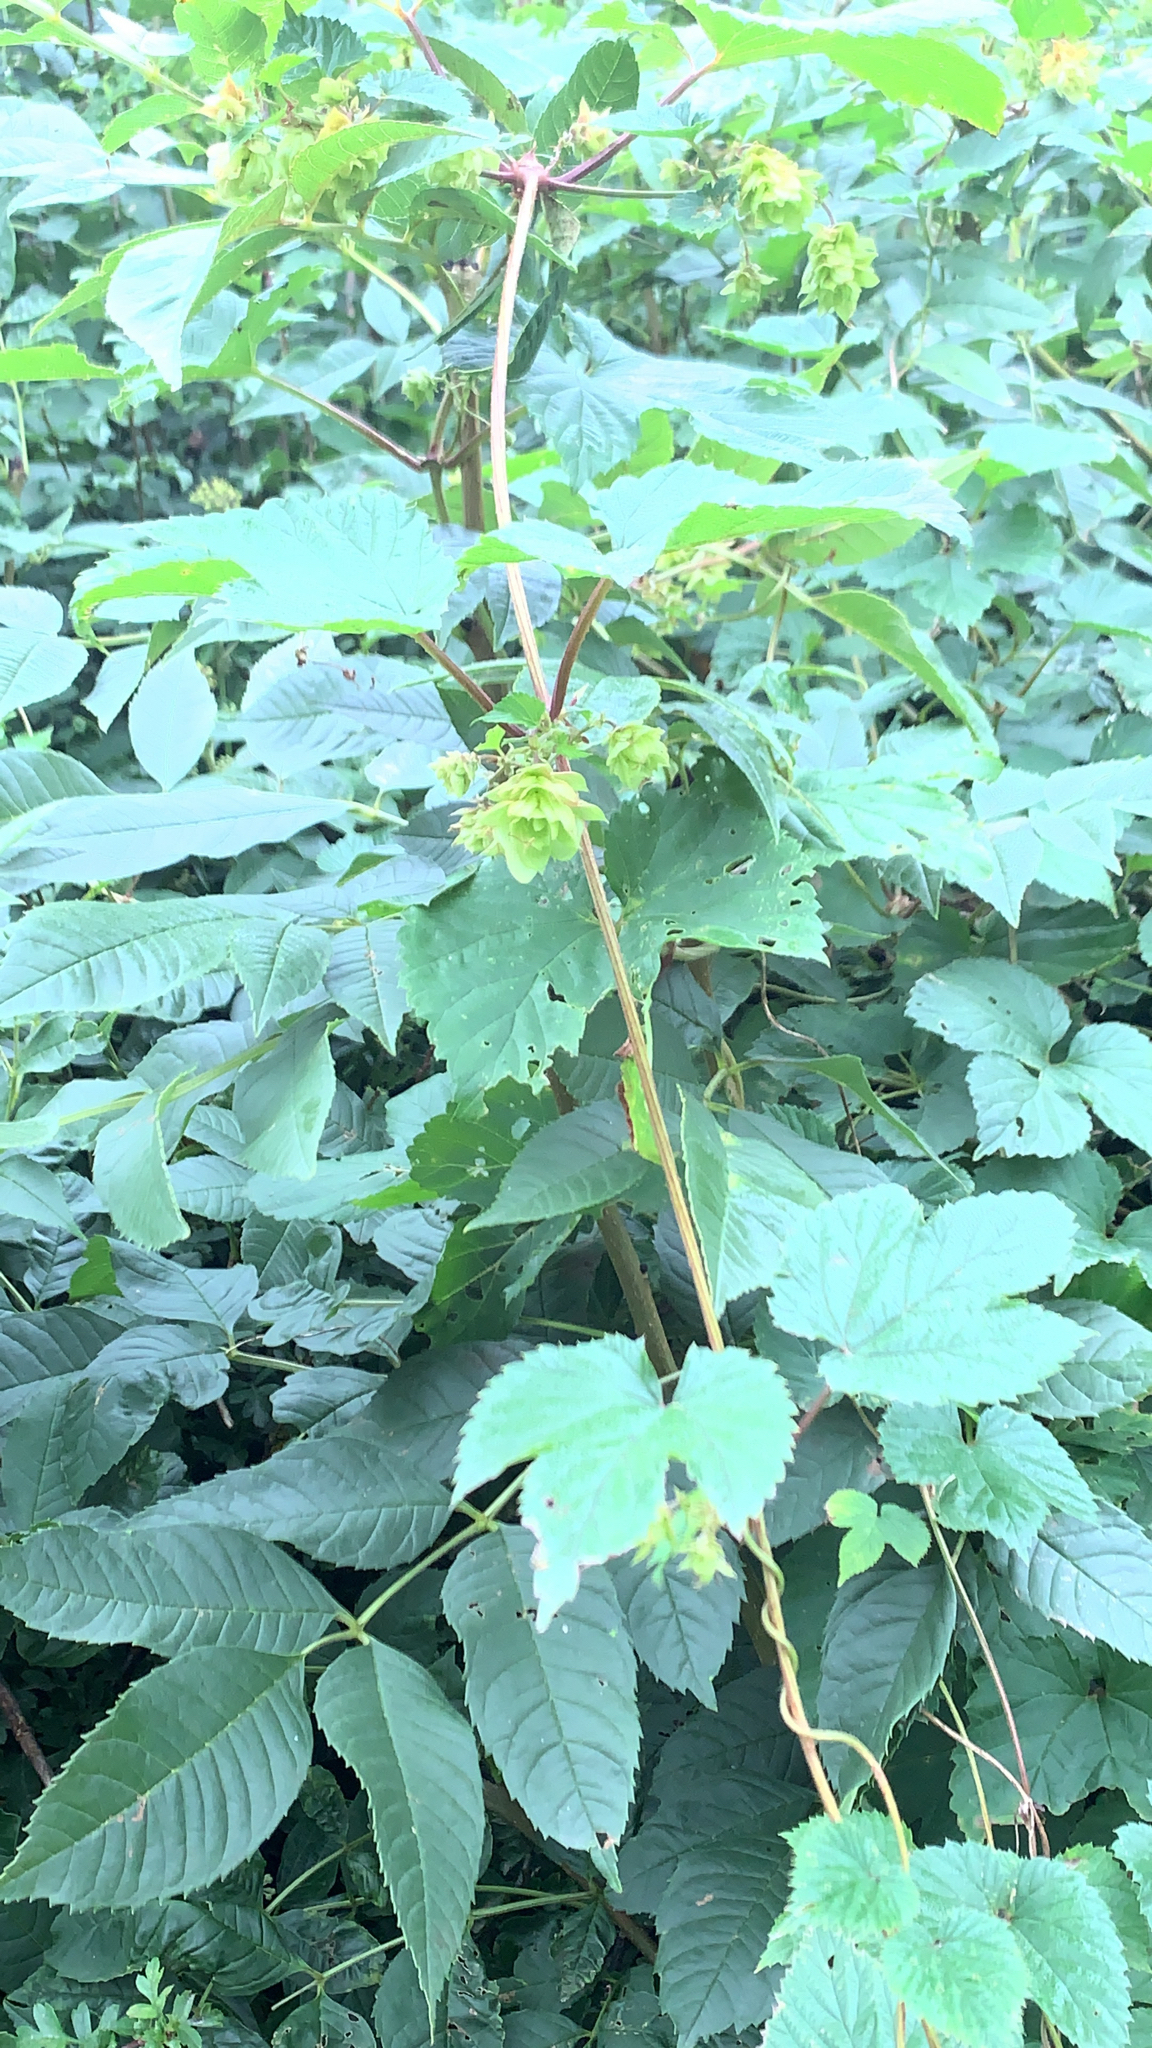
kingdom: Plantae
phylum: Tracheophyta
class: Magnoliopsida
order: Rosales
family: Cannabaceae
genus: Humulus
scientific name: Humulus lupulus
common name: Hop
